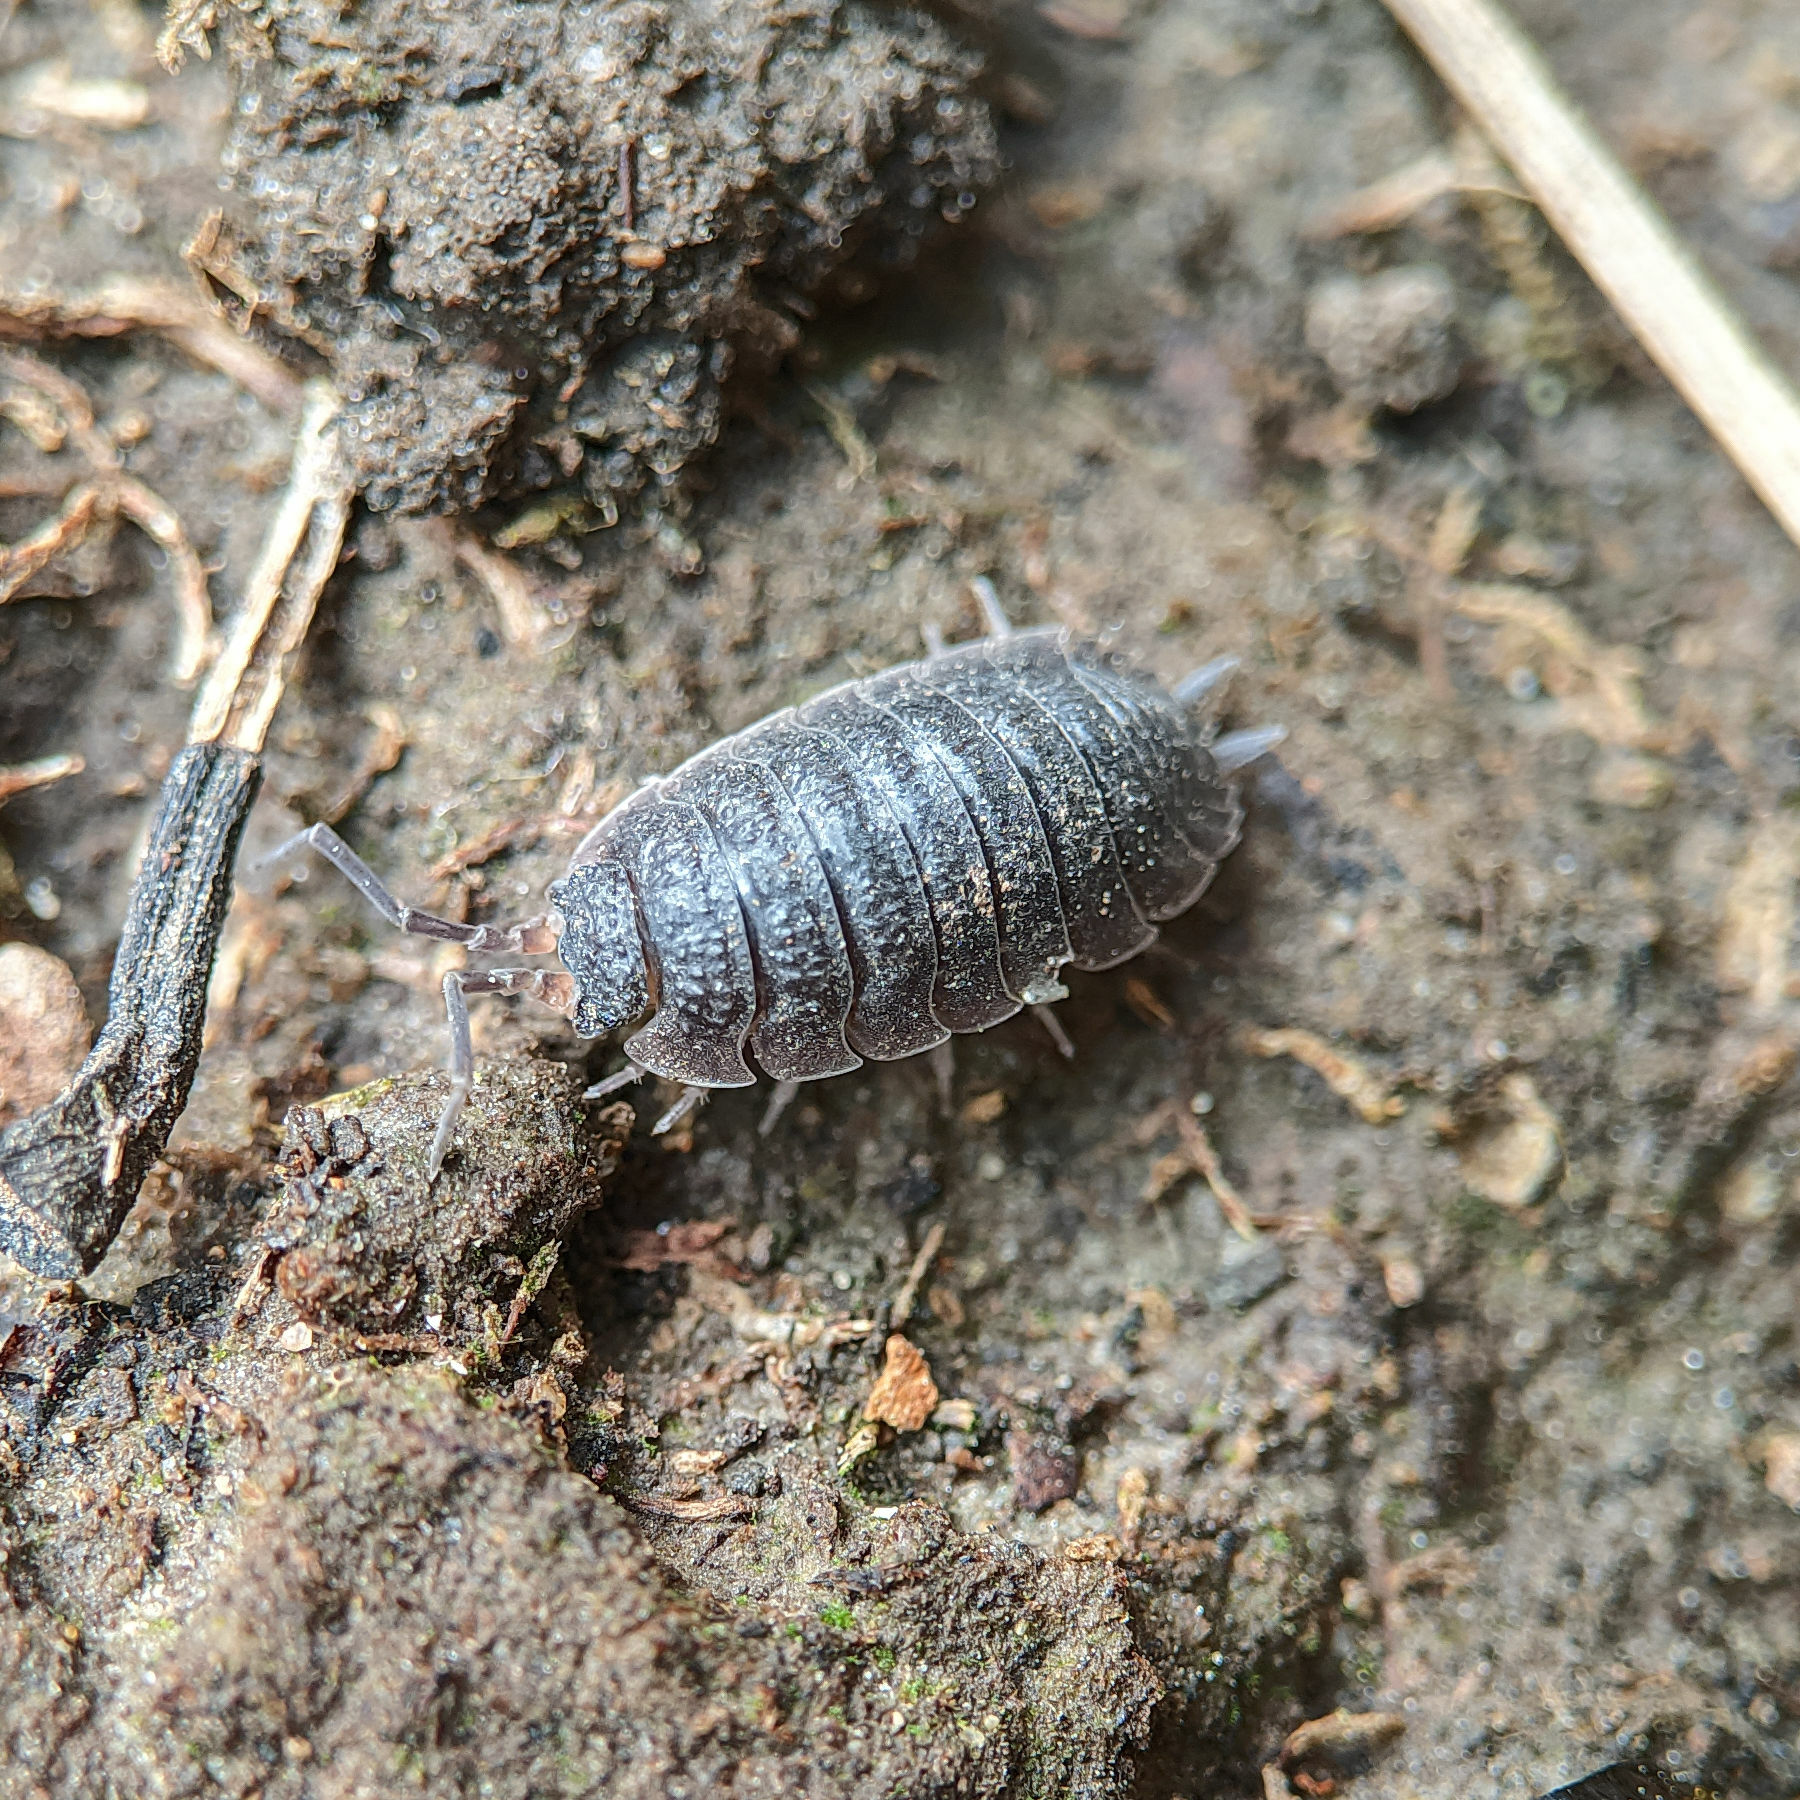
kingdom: Animalia
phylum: Arthropoda
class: Malacostraca
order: Isopoda
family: Porcellionidae
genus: Porcellio
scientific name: Porcellio scaber
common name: Common rough woodlouse
